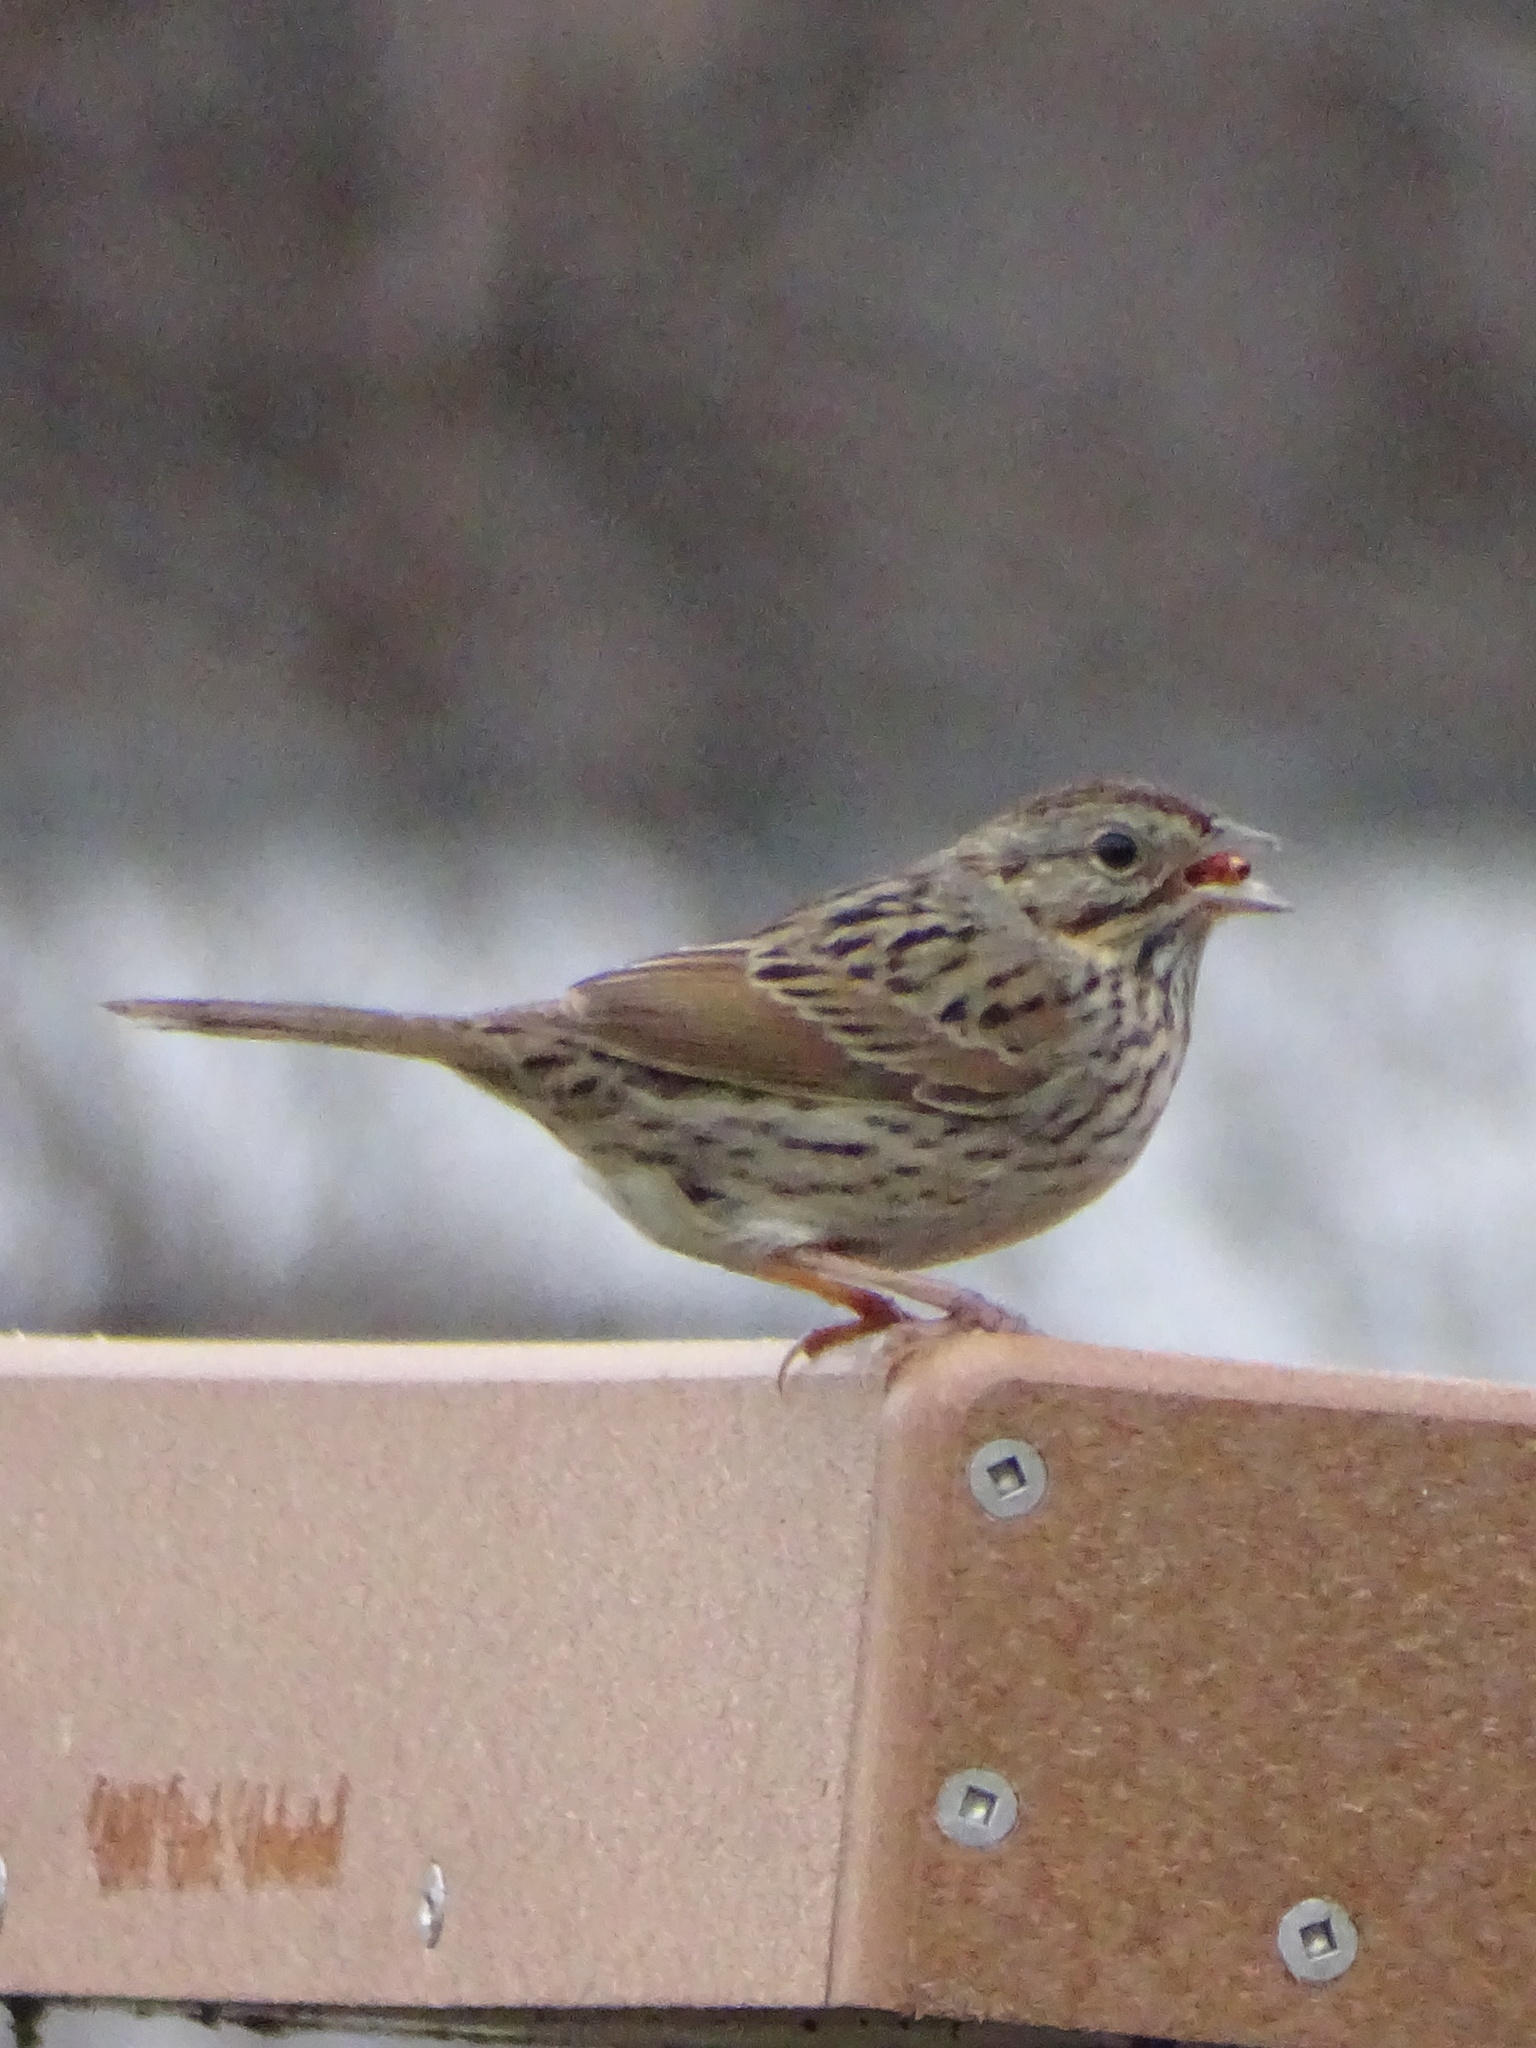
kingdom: Animalia
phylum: Chordata
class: Aves
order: Passeriformes
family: Passerellidae
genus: Melospiza
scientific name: Melospiza lincolnii
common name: Lincoln's sparrow
